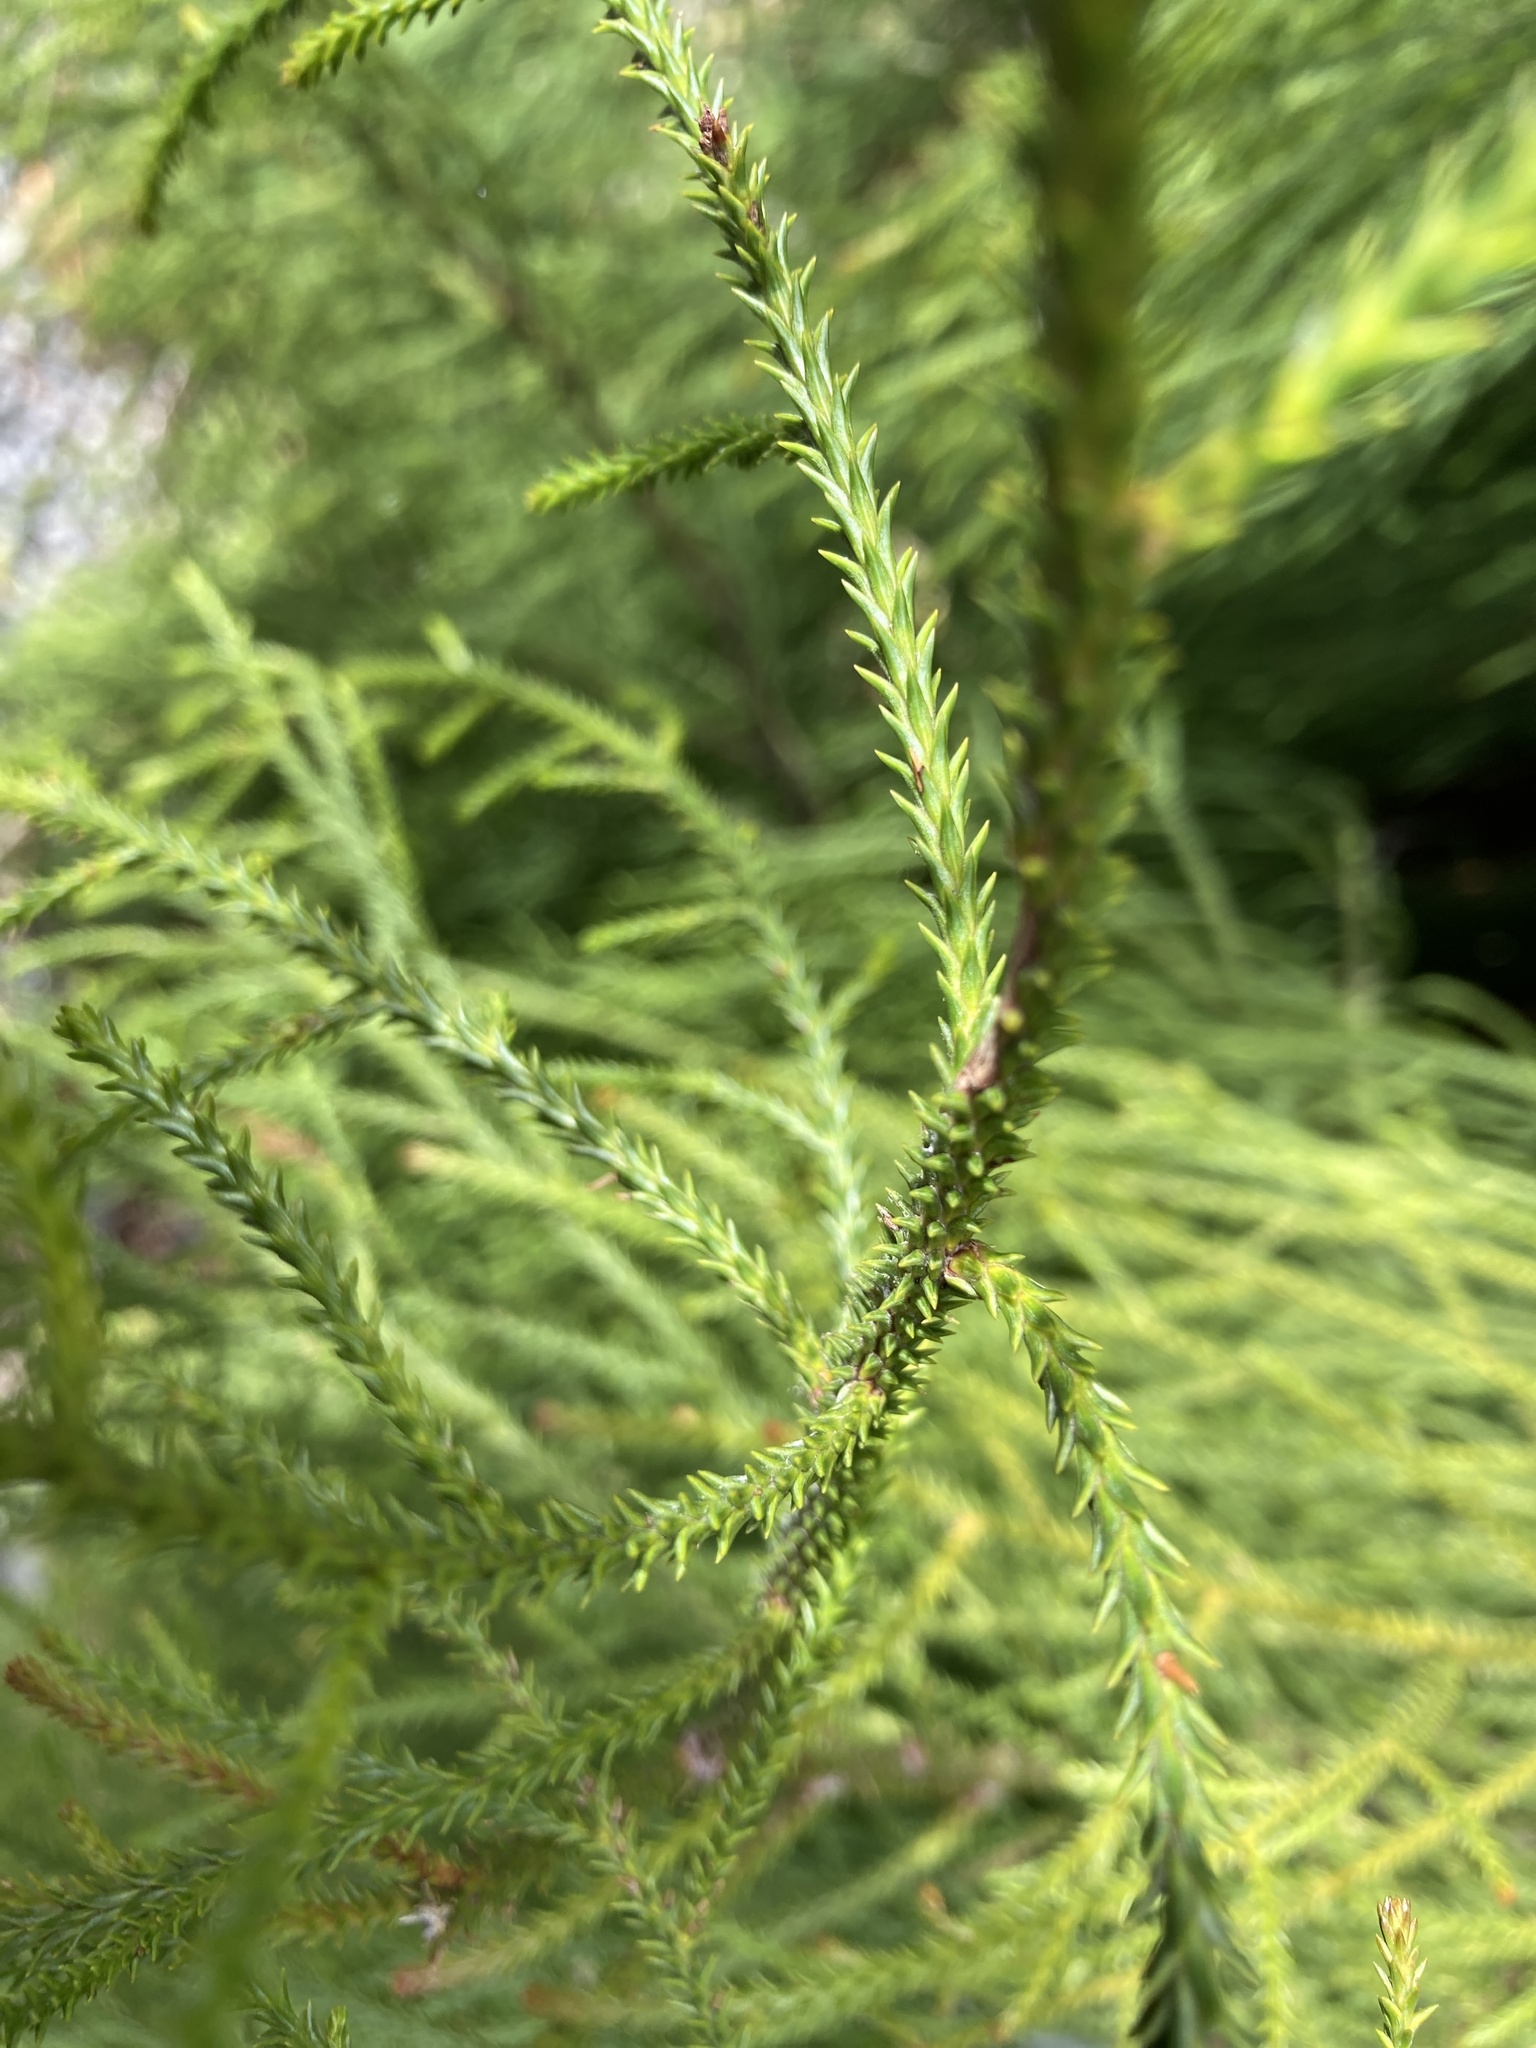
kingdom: Plantae
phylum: Tracheophyta
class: Pinopsida
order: Pinales
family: Podocarpaceae
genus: Dacrydium
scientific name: Dacrydium cupressinum
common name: Red pine
